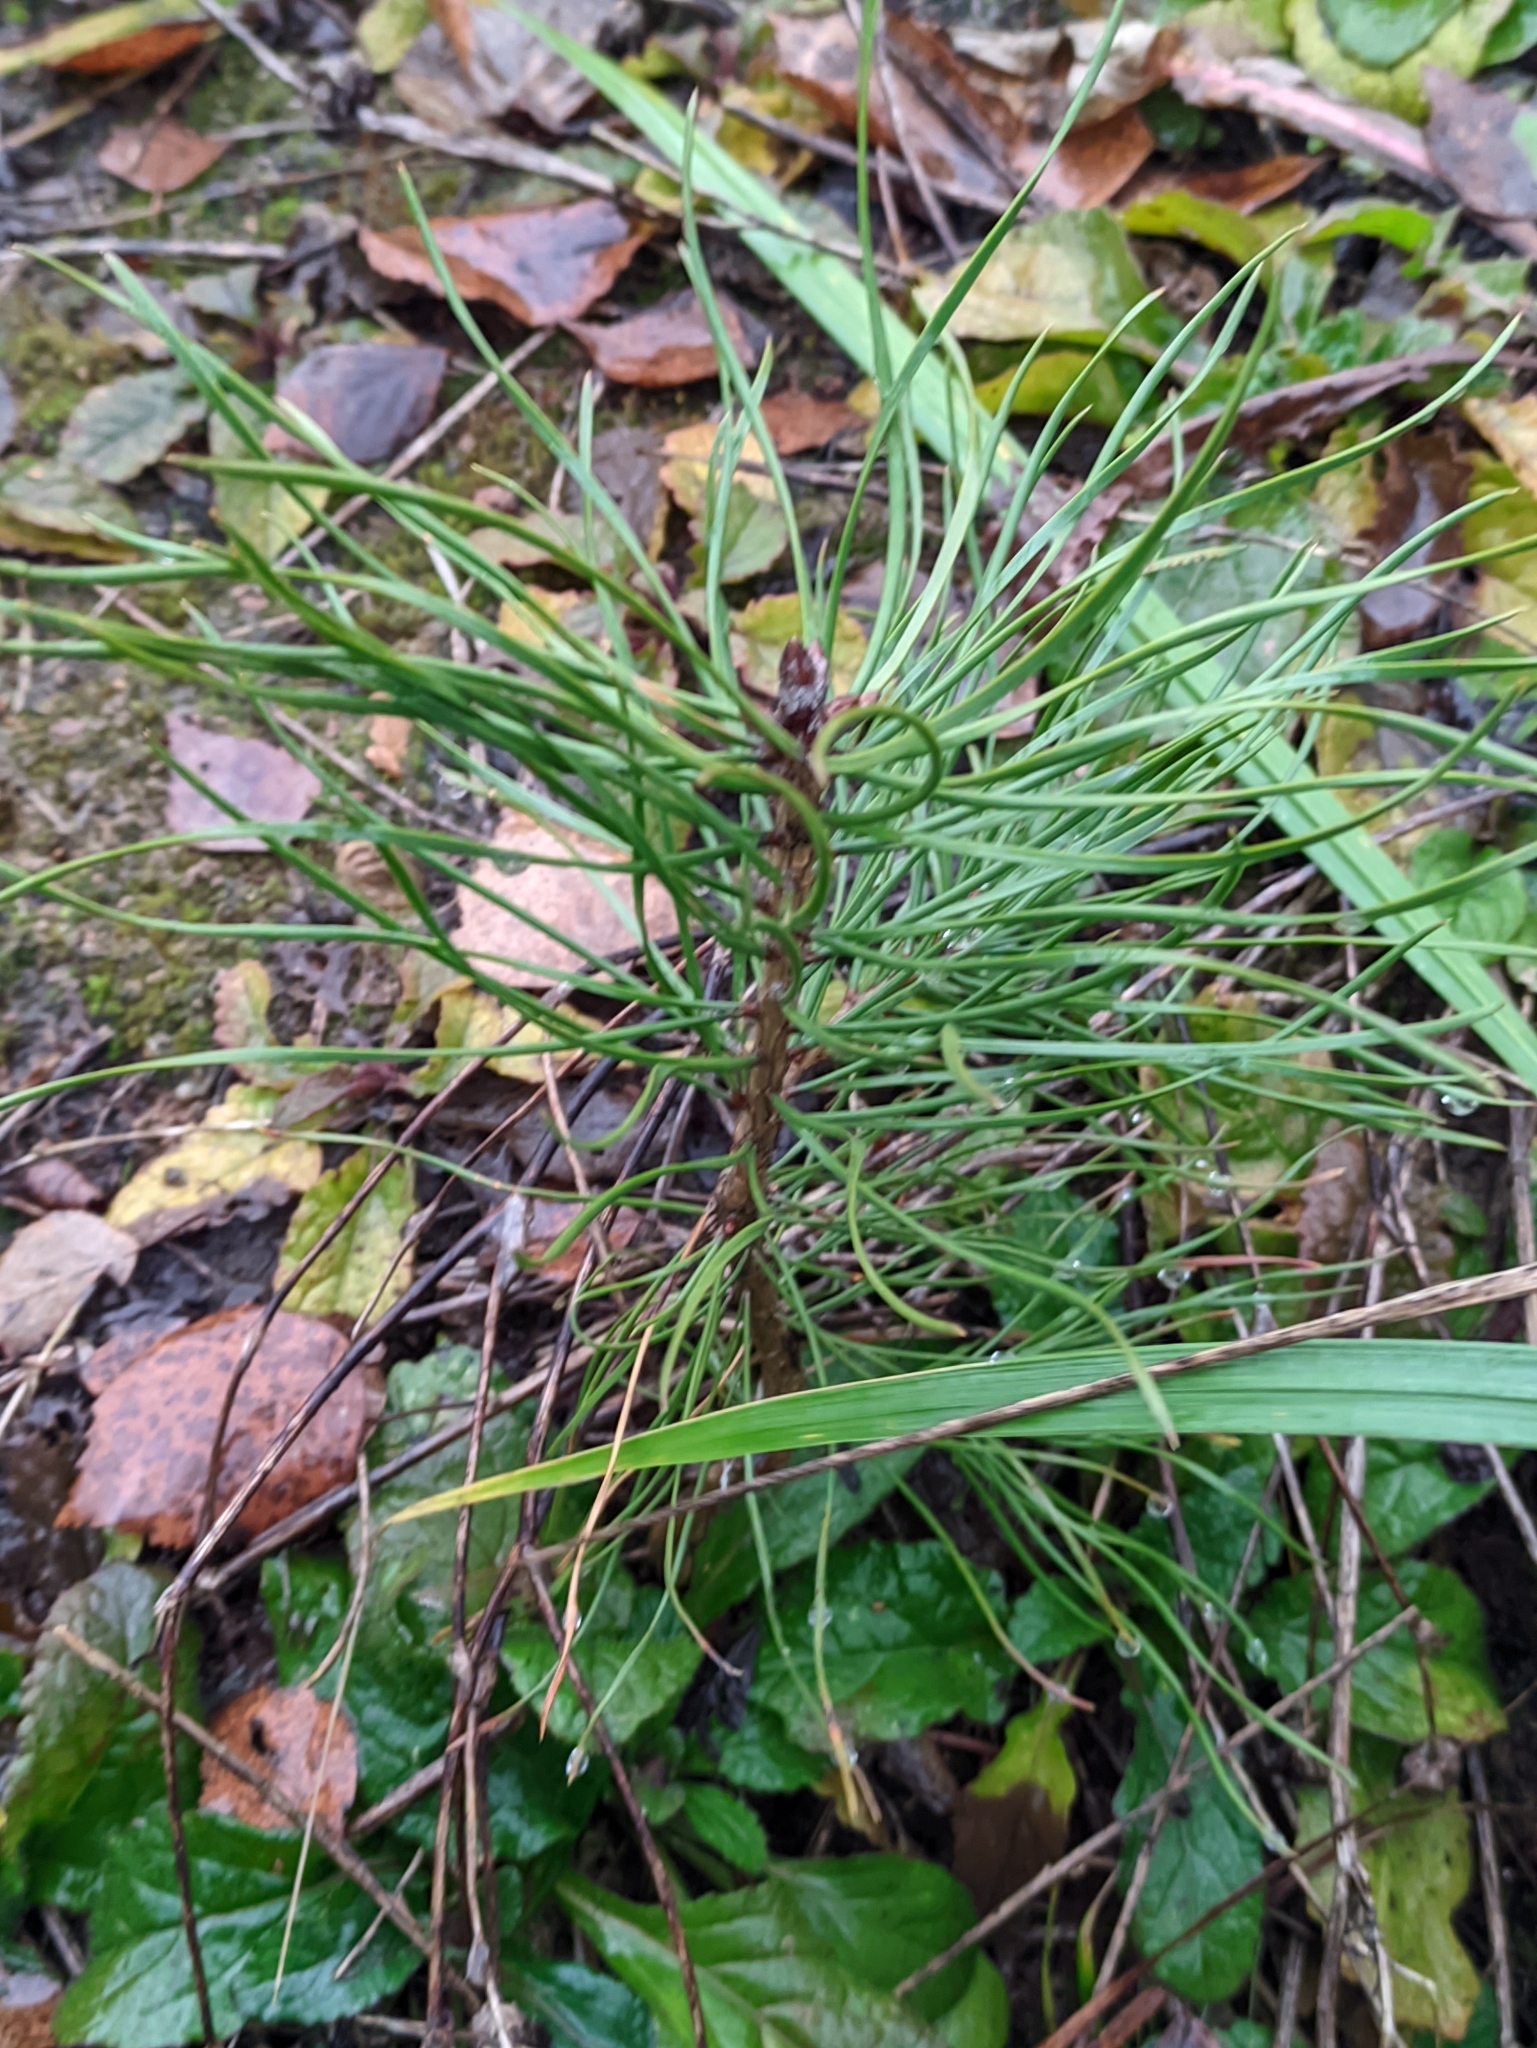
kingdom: Plantae
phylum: Tracheophyta
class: Pinopsida
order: Pinales
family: Pinaceae
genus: Pinus
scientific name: Pinus sylvestris
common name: Scots pine
